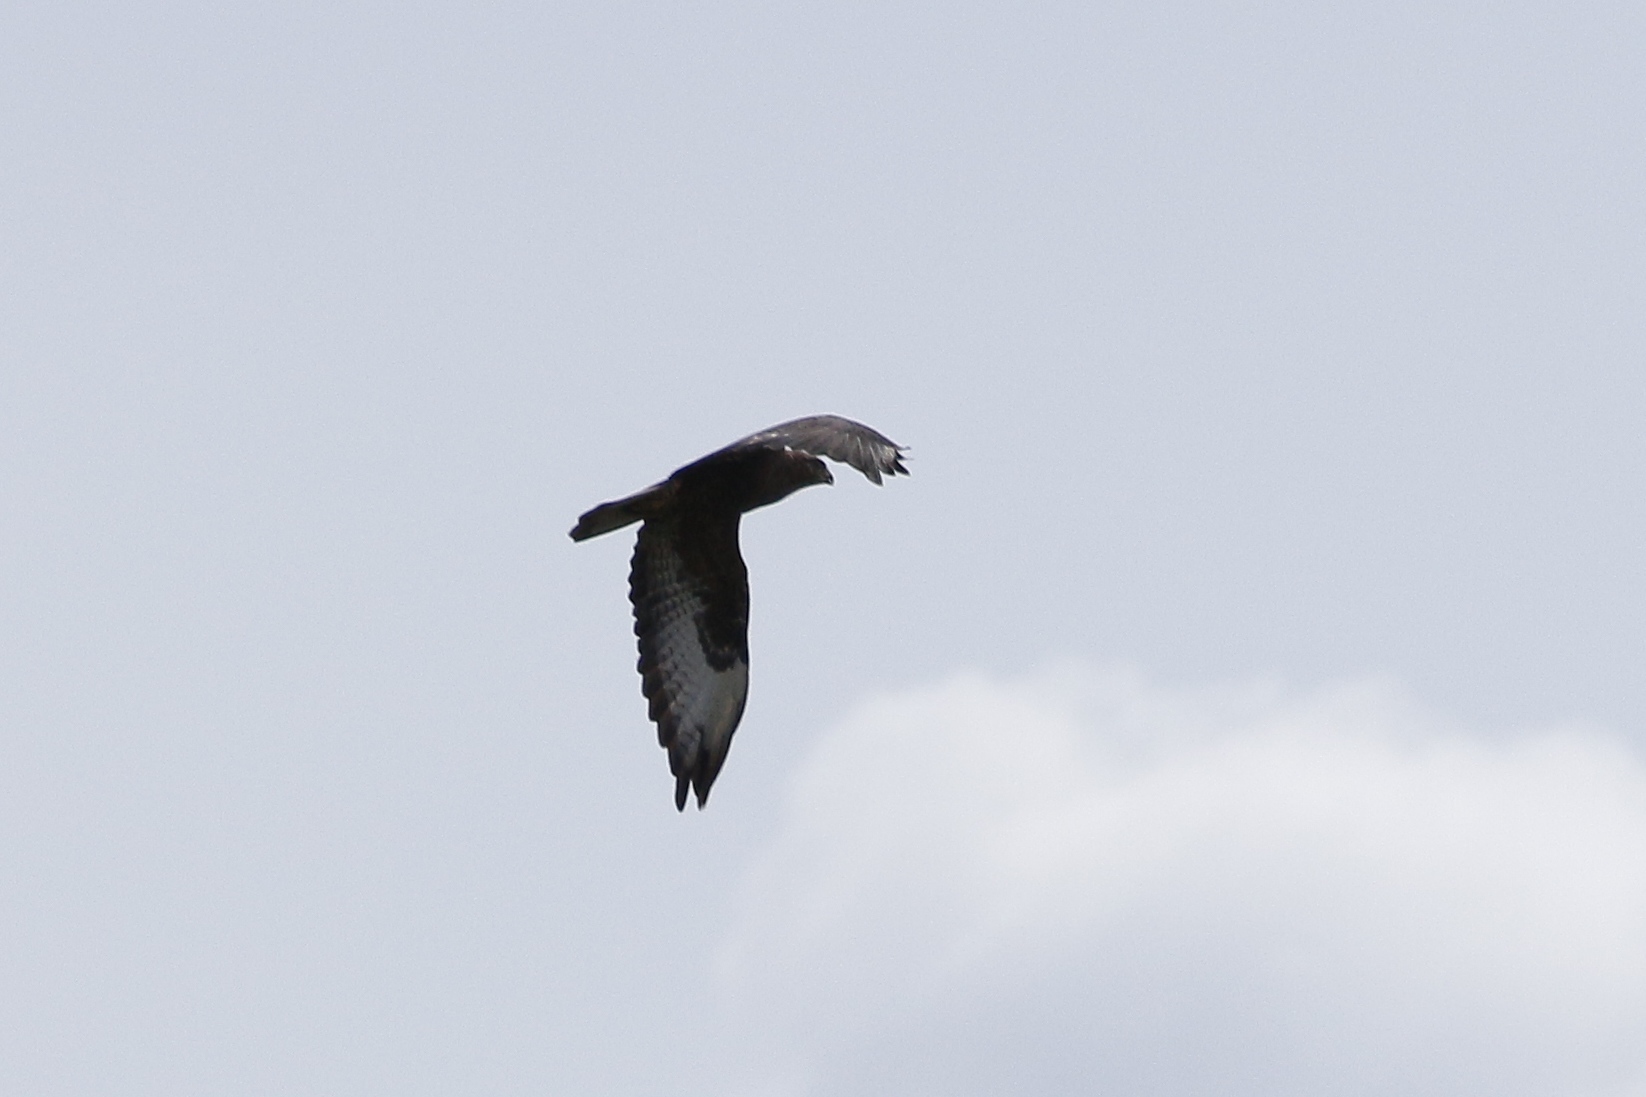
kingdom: Animalia
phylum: Chordata
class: Aves
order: Accipitriformes
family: Accipitridae
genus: Buteo
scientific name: Buteo buteo
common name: Common buzzard
